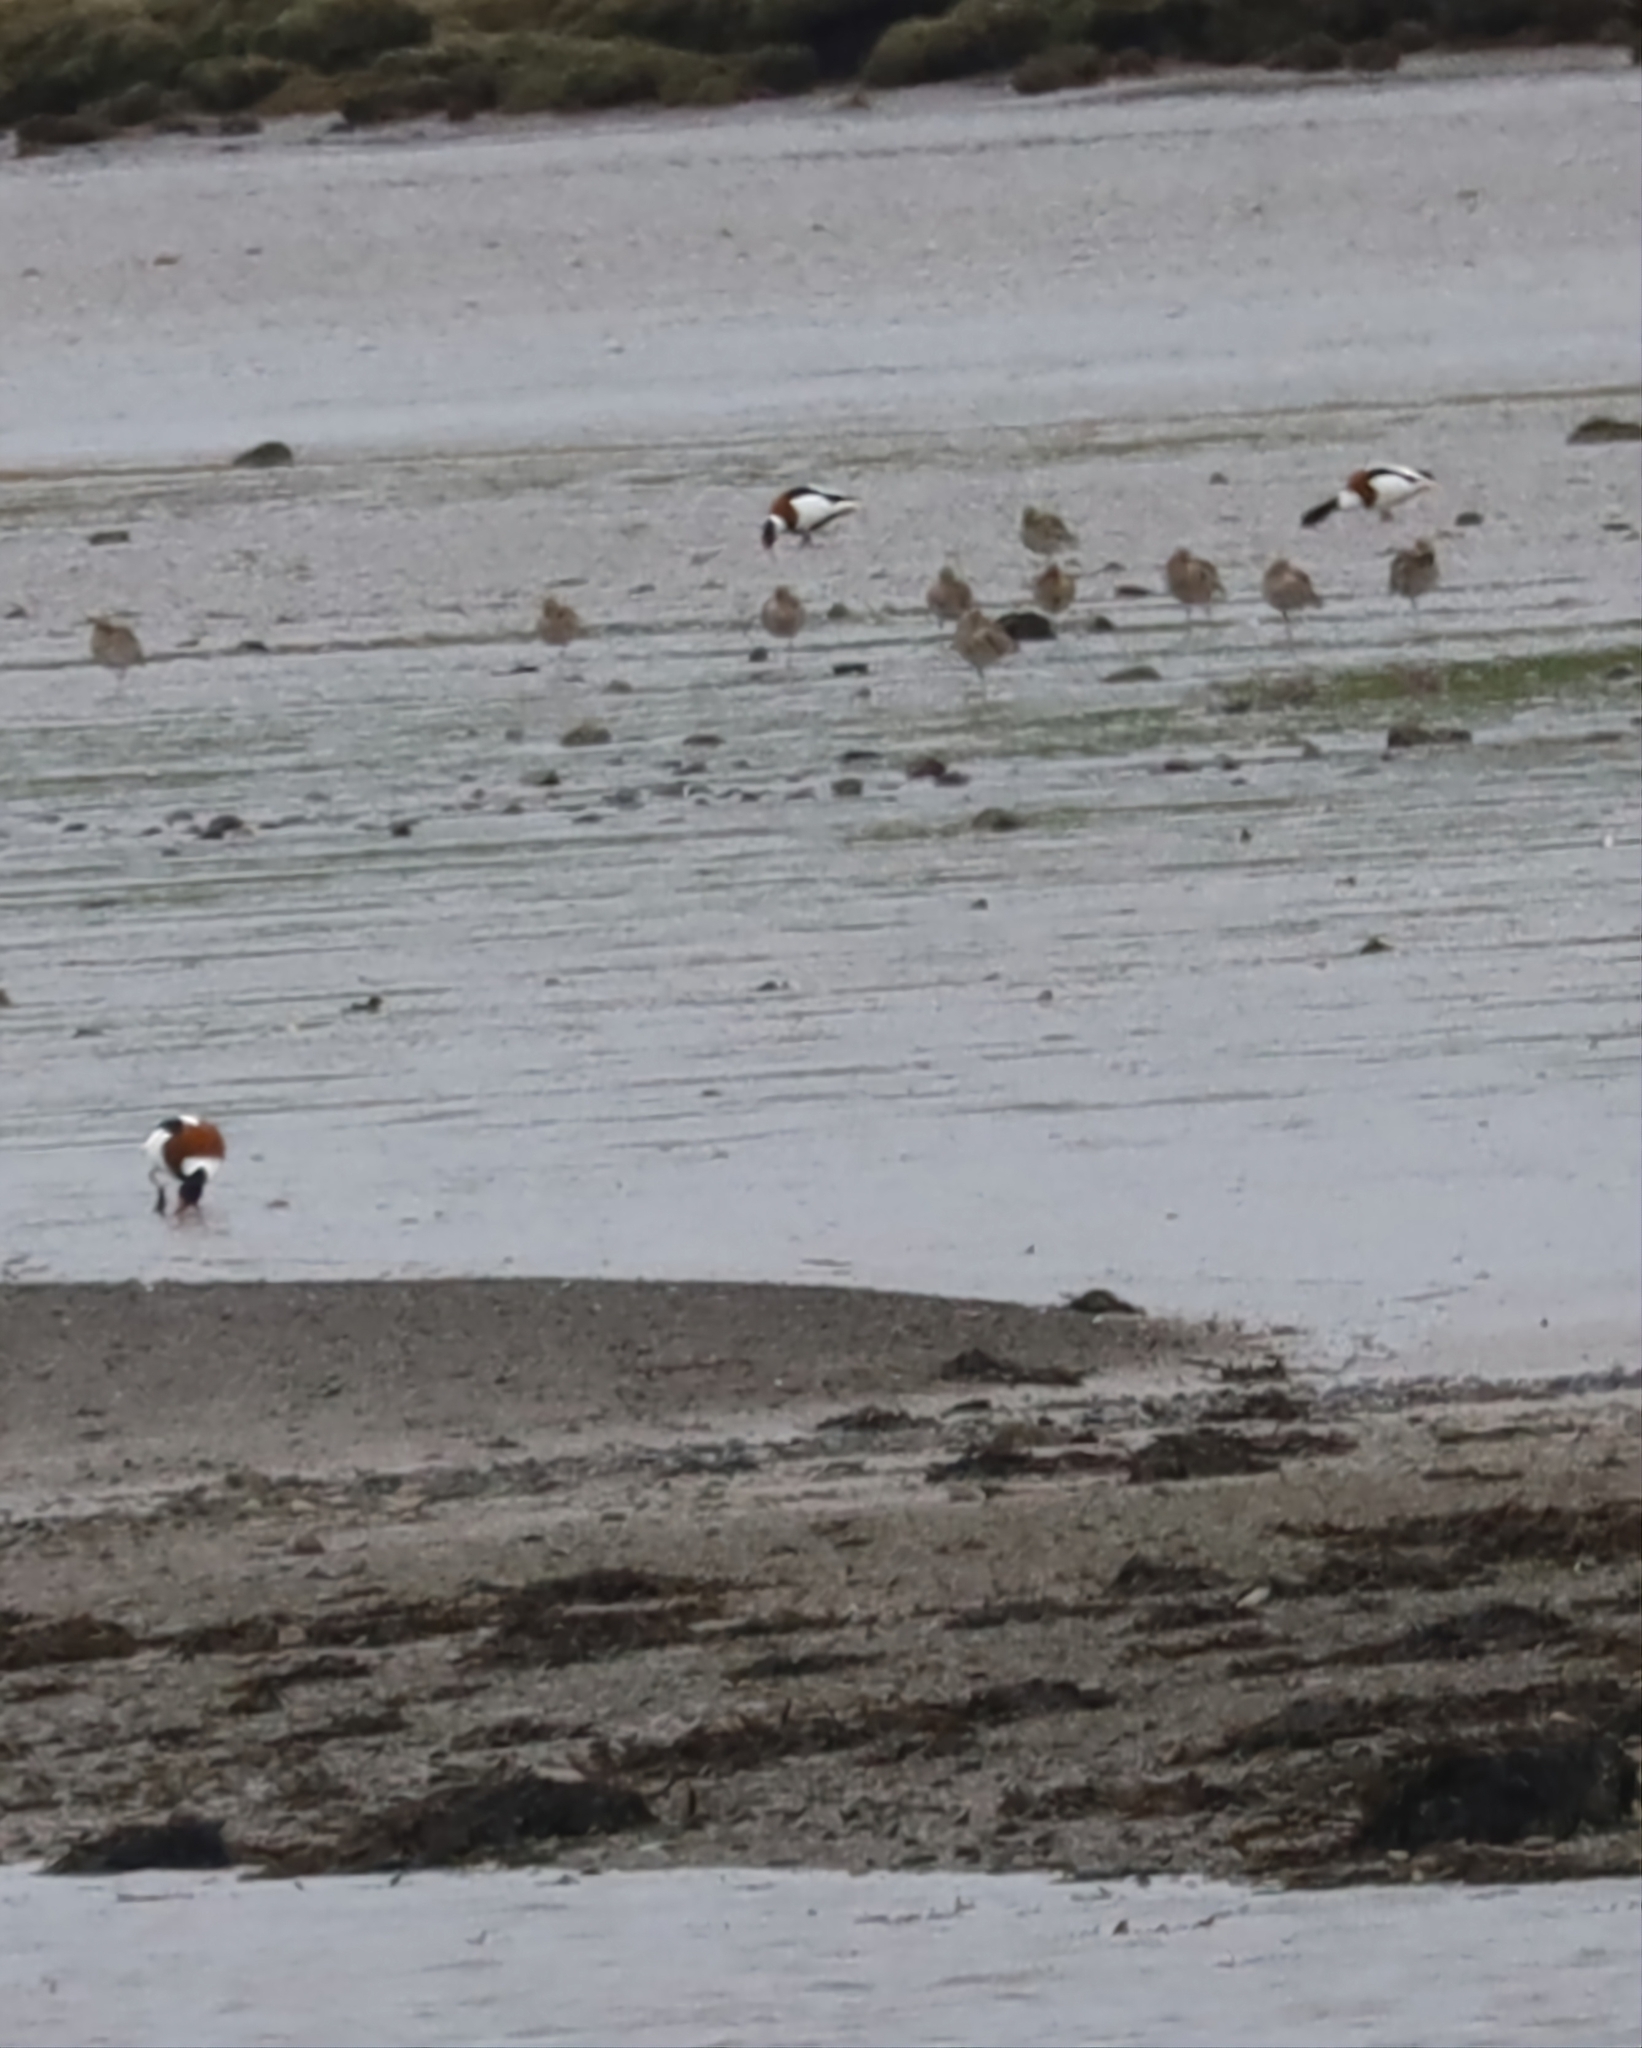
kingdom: Animalia
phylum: Chordata
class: Aves
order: Anseriformes
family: Anatidae
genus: Tadorna
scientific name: Tadorna tadorna
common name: Common shelduck
